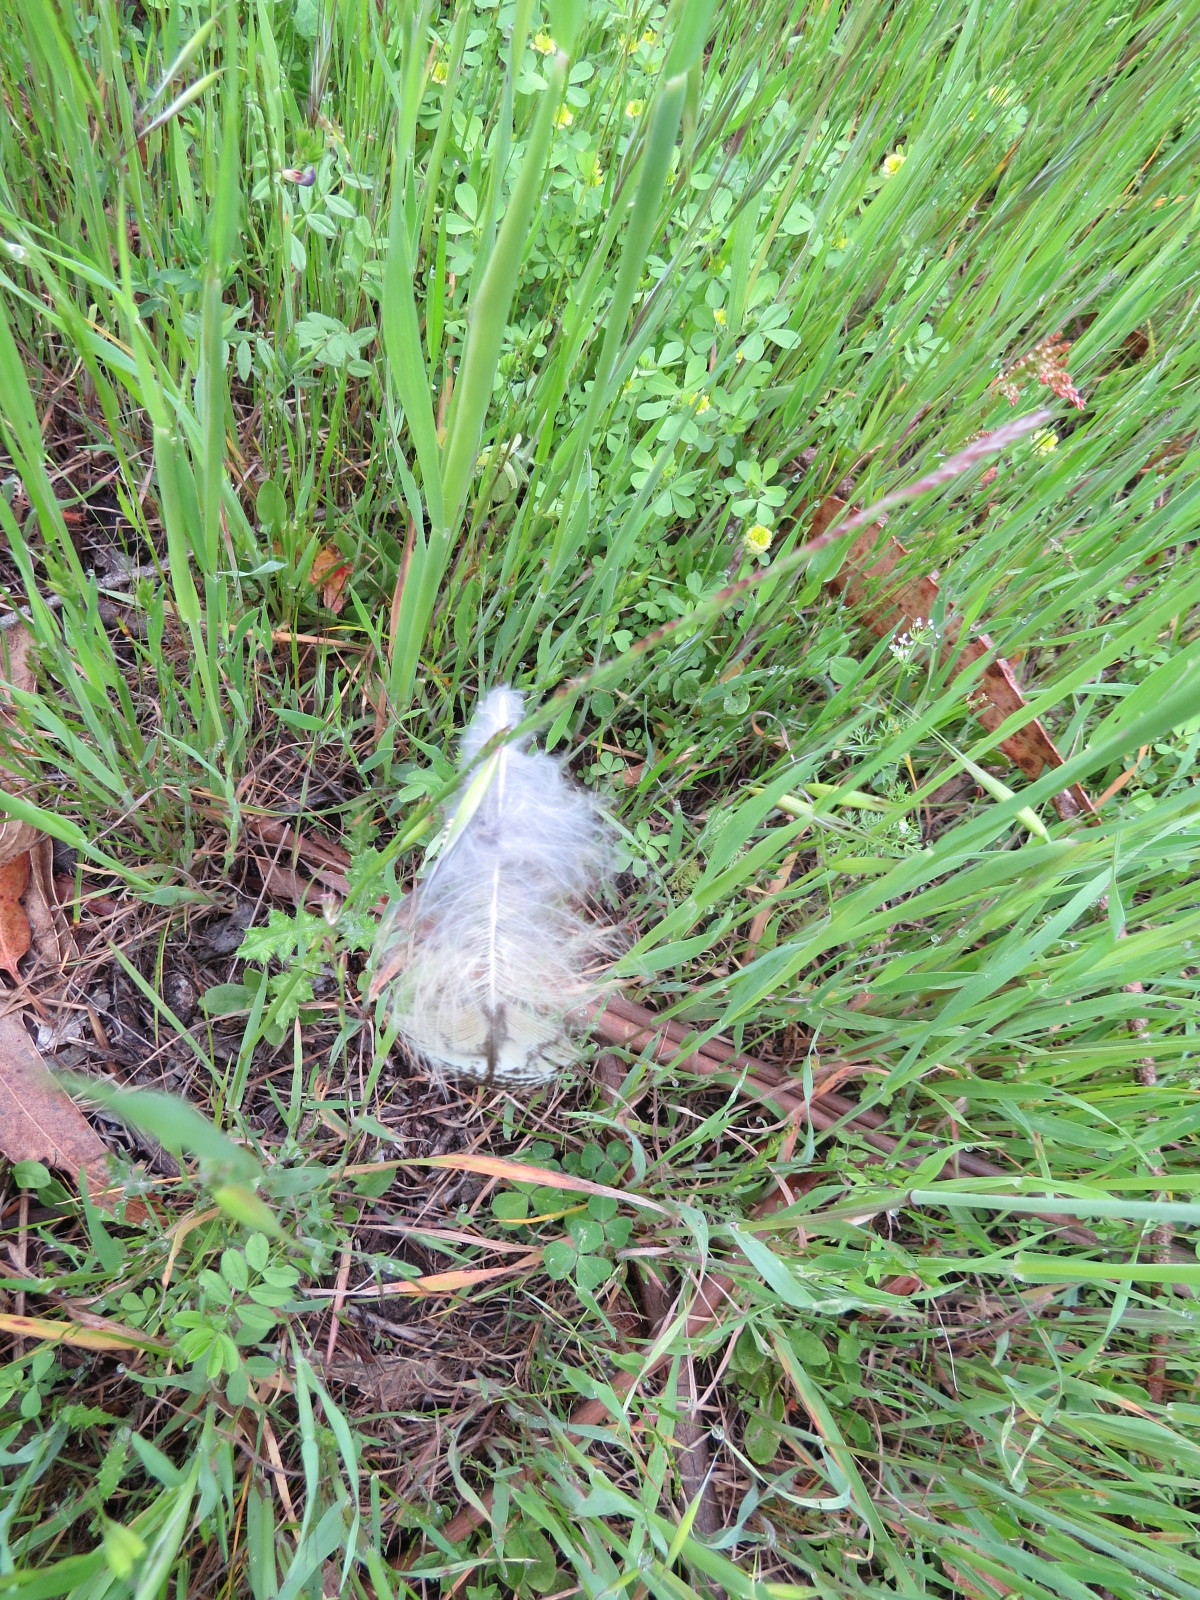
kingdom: Animalia
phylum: Chordata
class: Aves
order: Strigiformes
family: Strigidae
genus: Bubo
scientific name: Bubo virginianus
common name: Great horned owl
